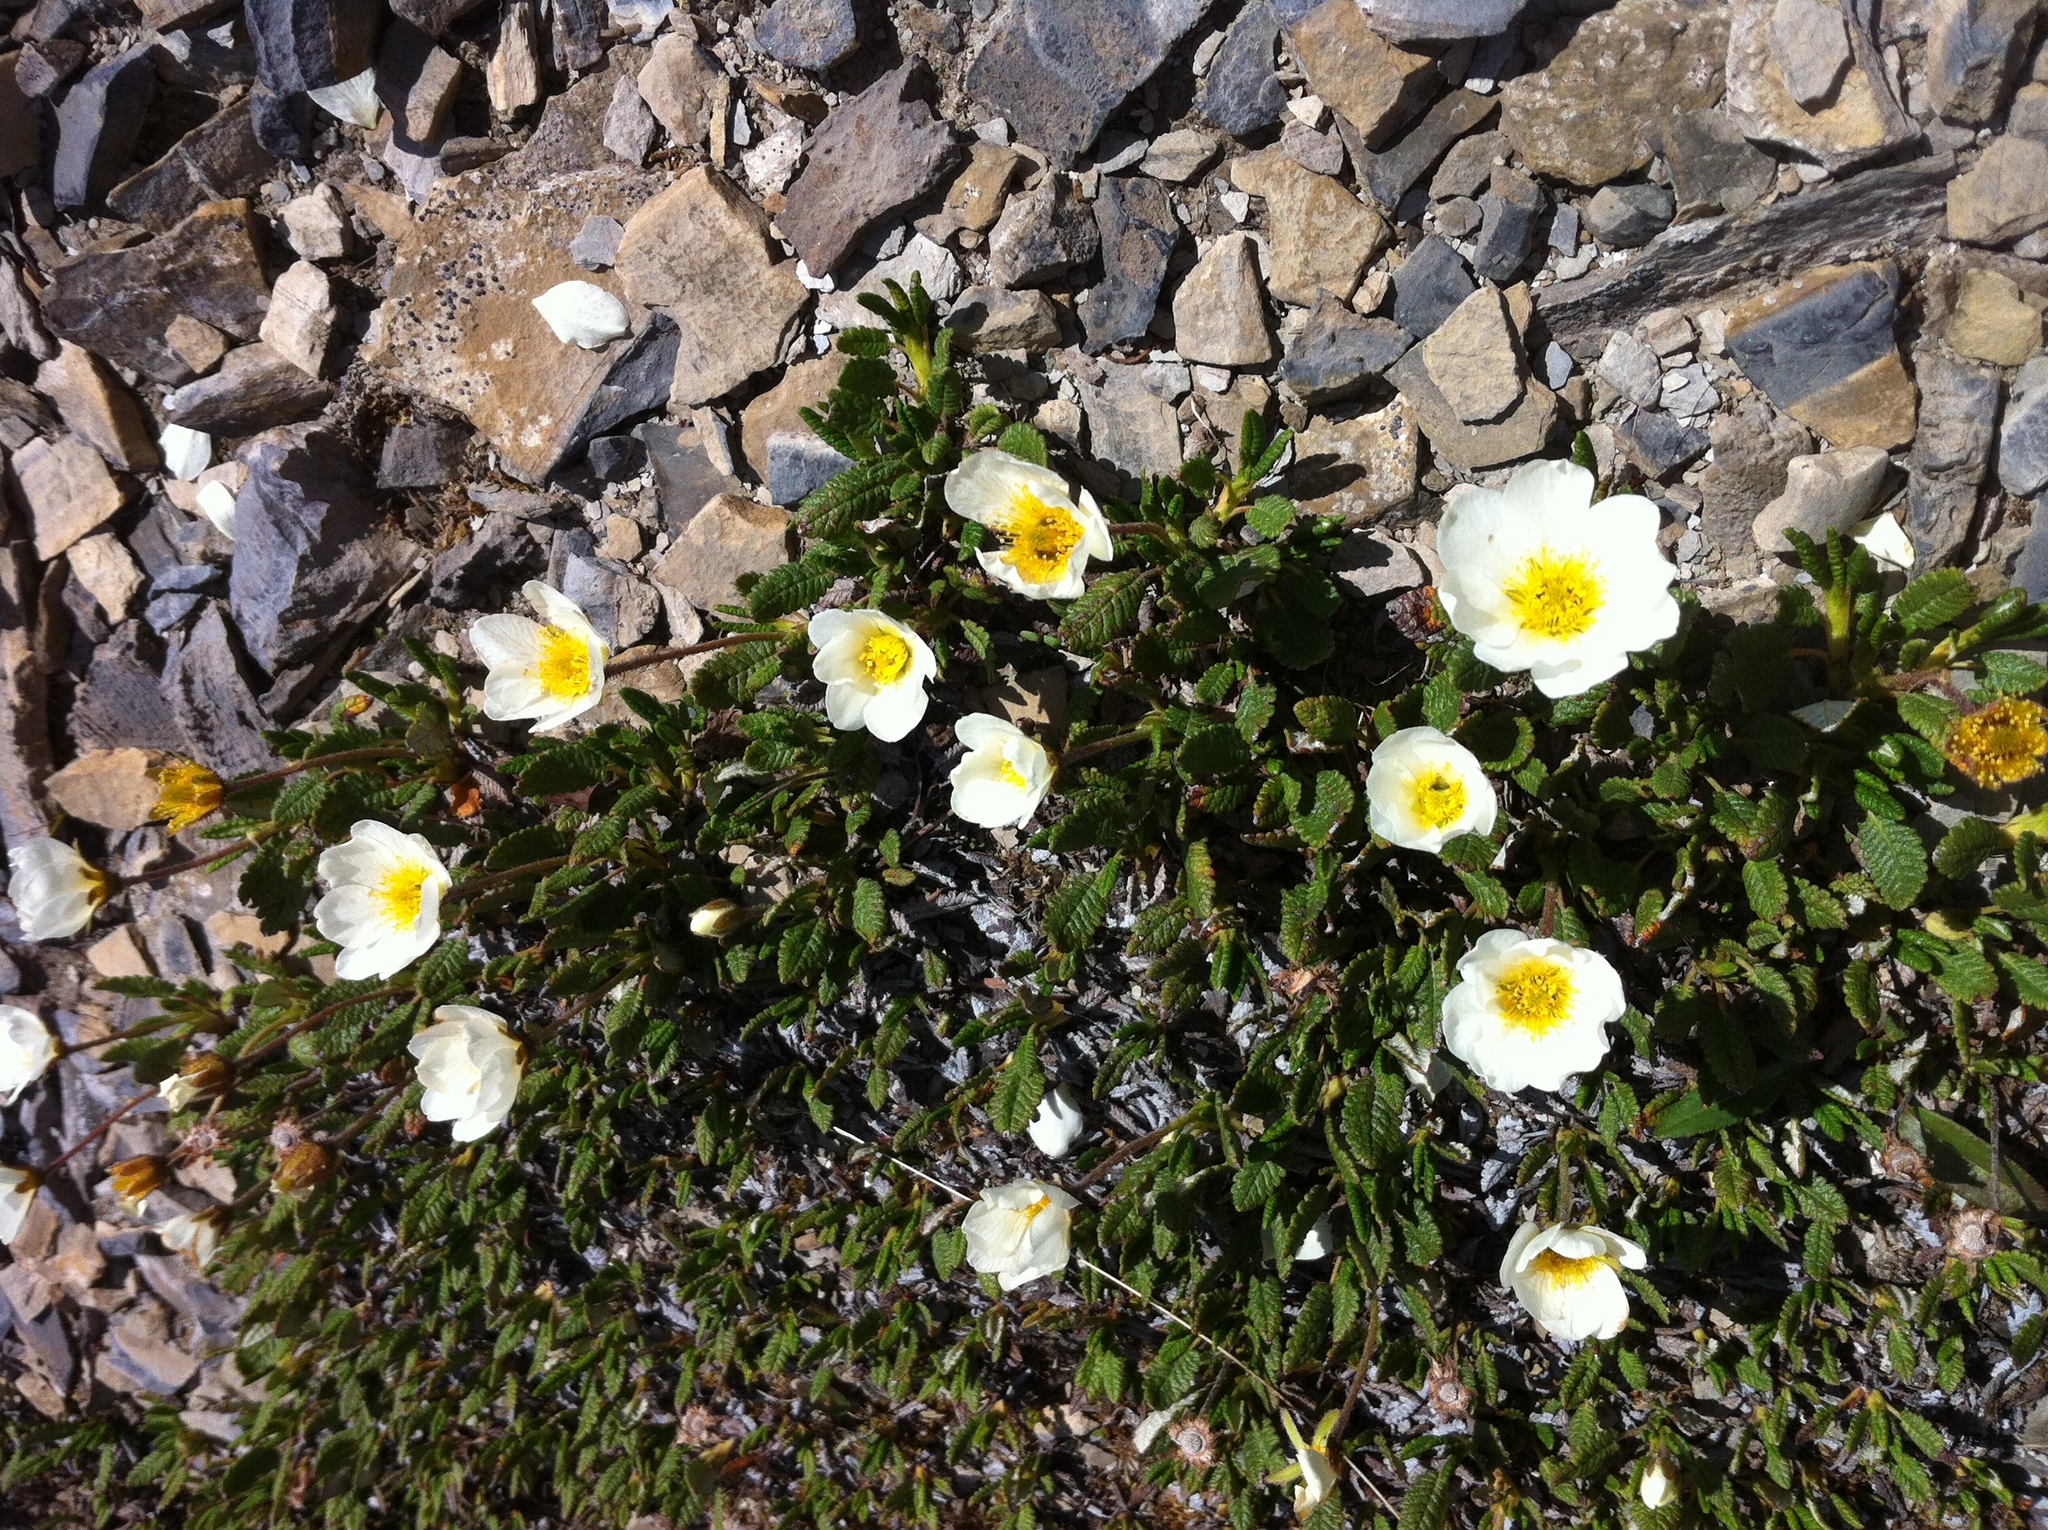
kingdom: Plantae
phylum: Tracheophyta
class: Magnoliopsida
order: Rosales
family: Rosaceae
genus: Dryas
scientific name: Dryas octopetala
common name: Eight-petal mountain-avens
